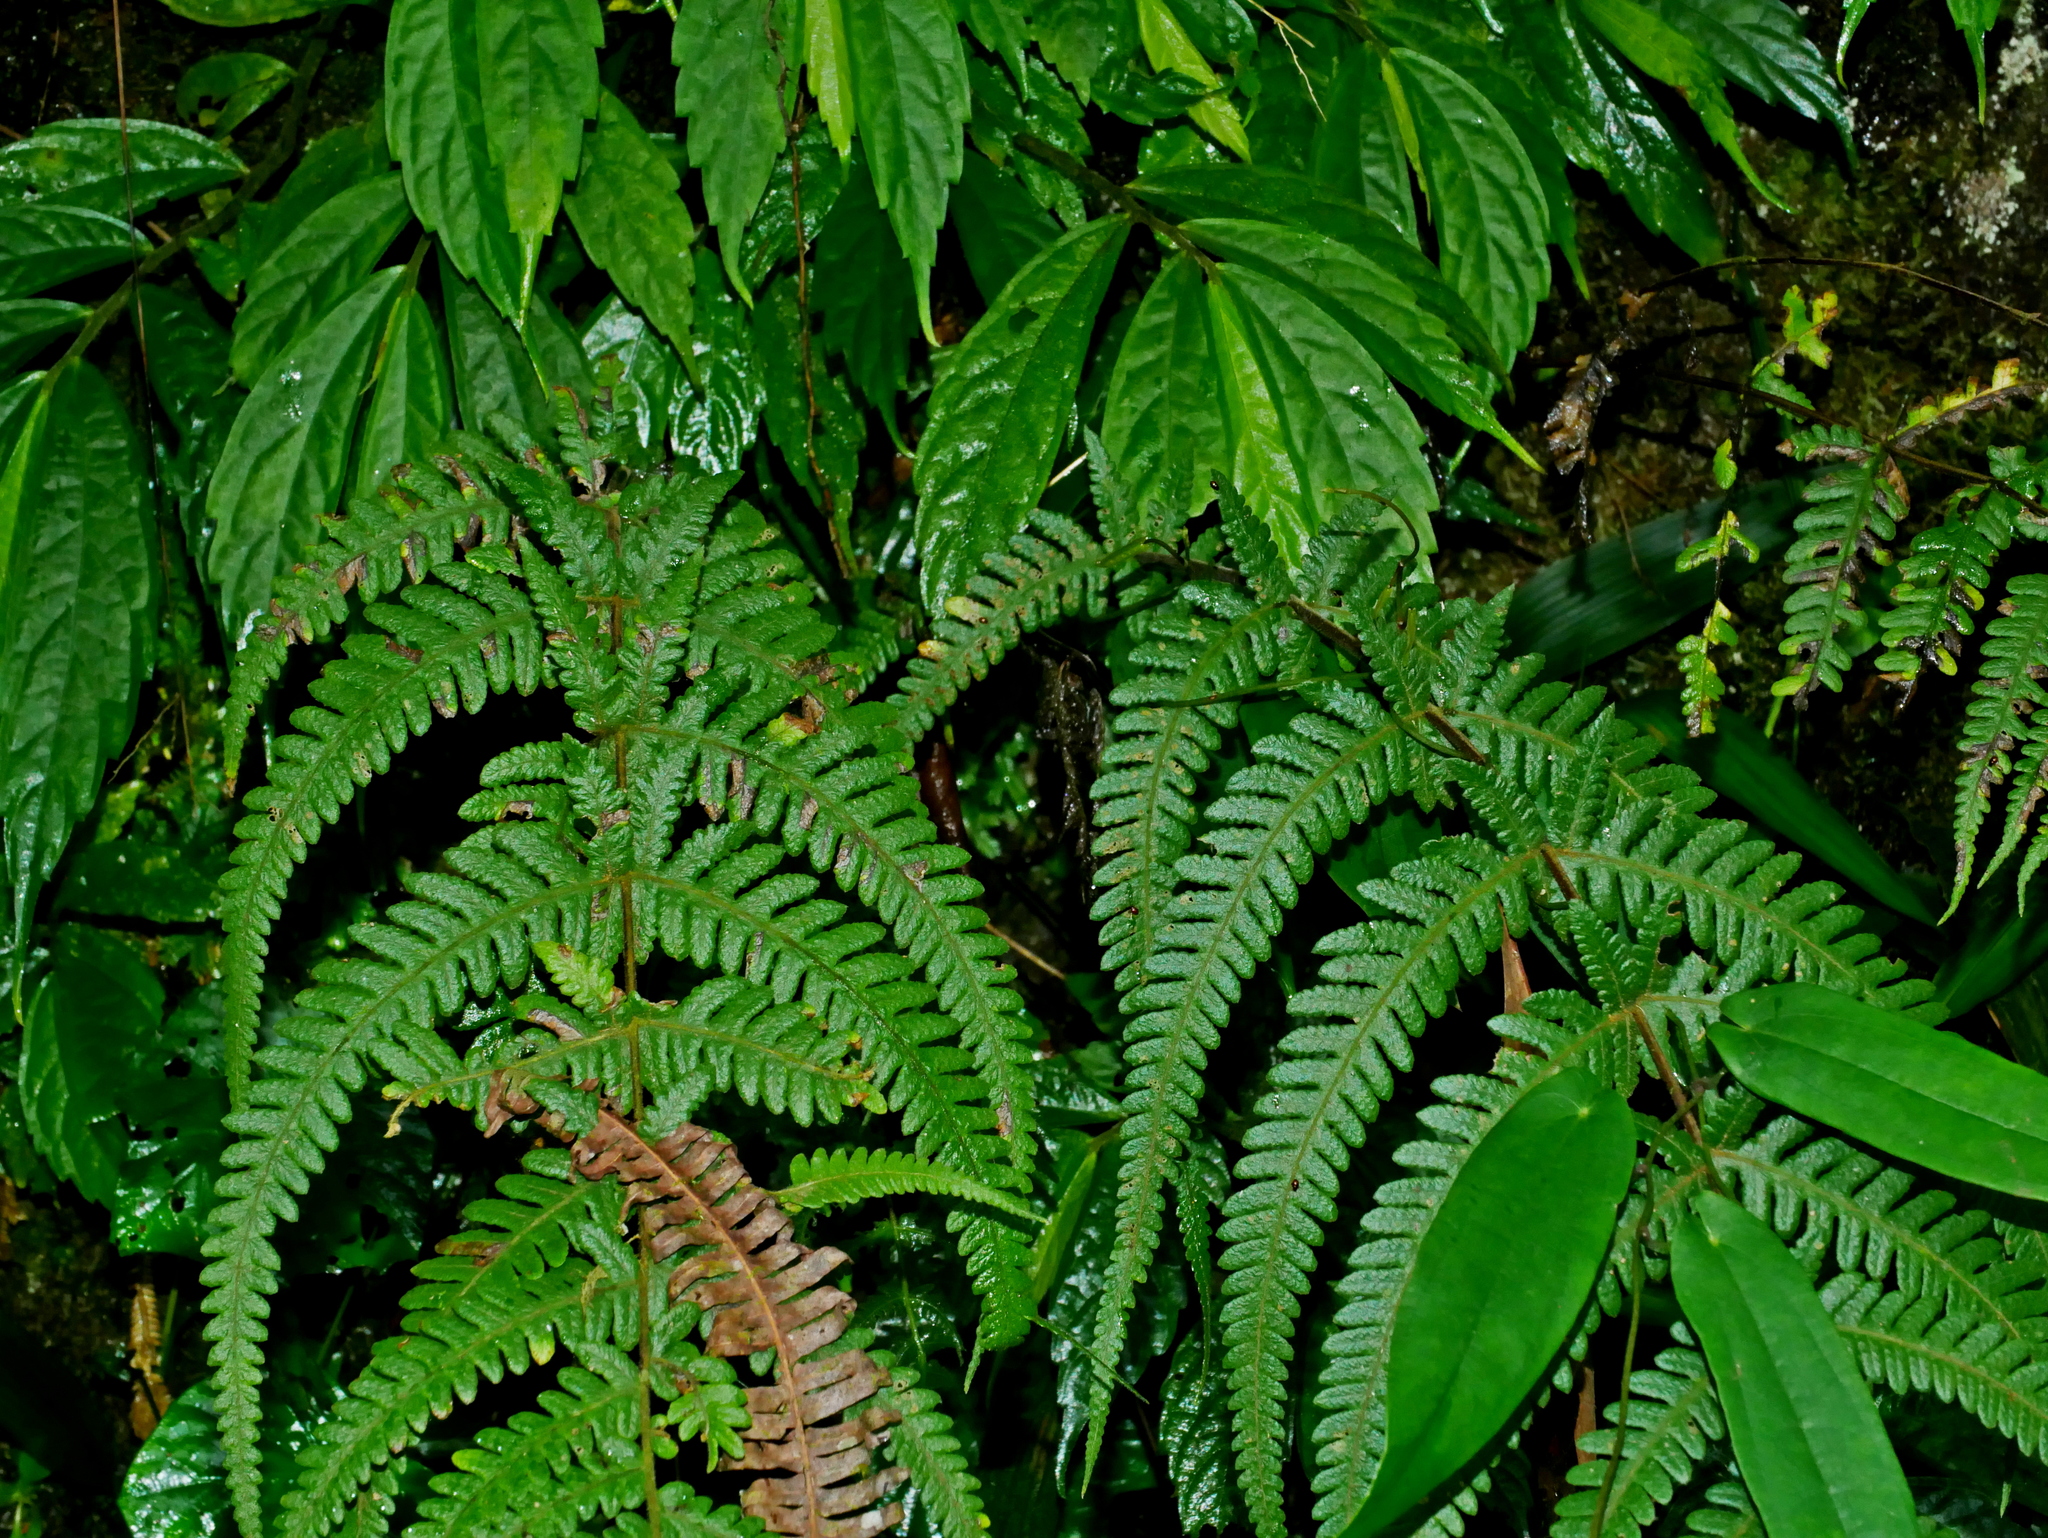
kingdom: Plantae
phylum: Tracheophyta
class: Polypodiopsida
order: Polypodiales
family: Thelypteridaceae
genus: Pseudophegopteris
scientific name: Pseudophegopteris subaurita
